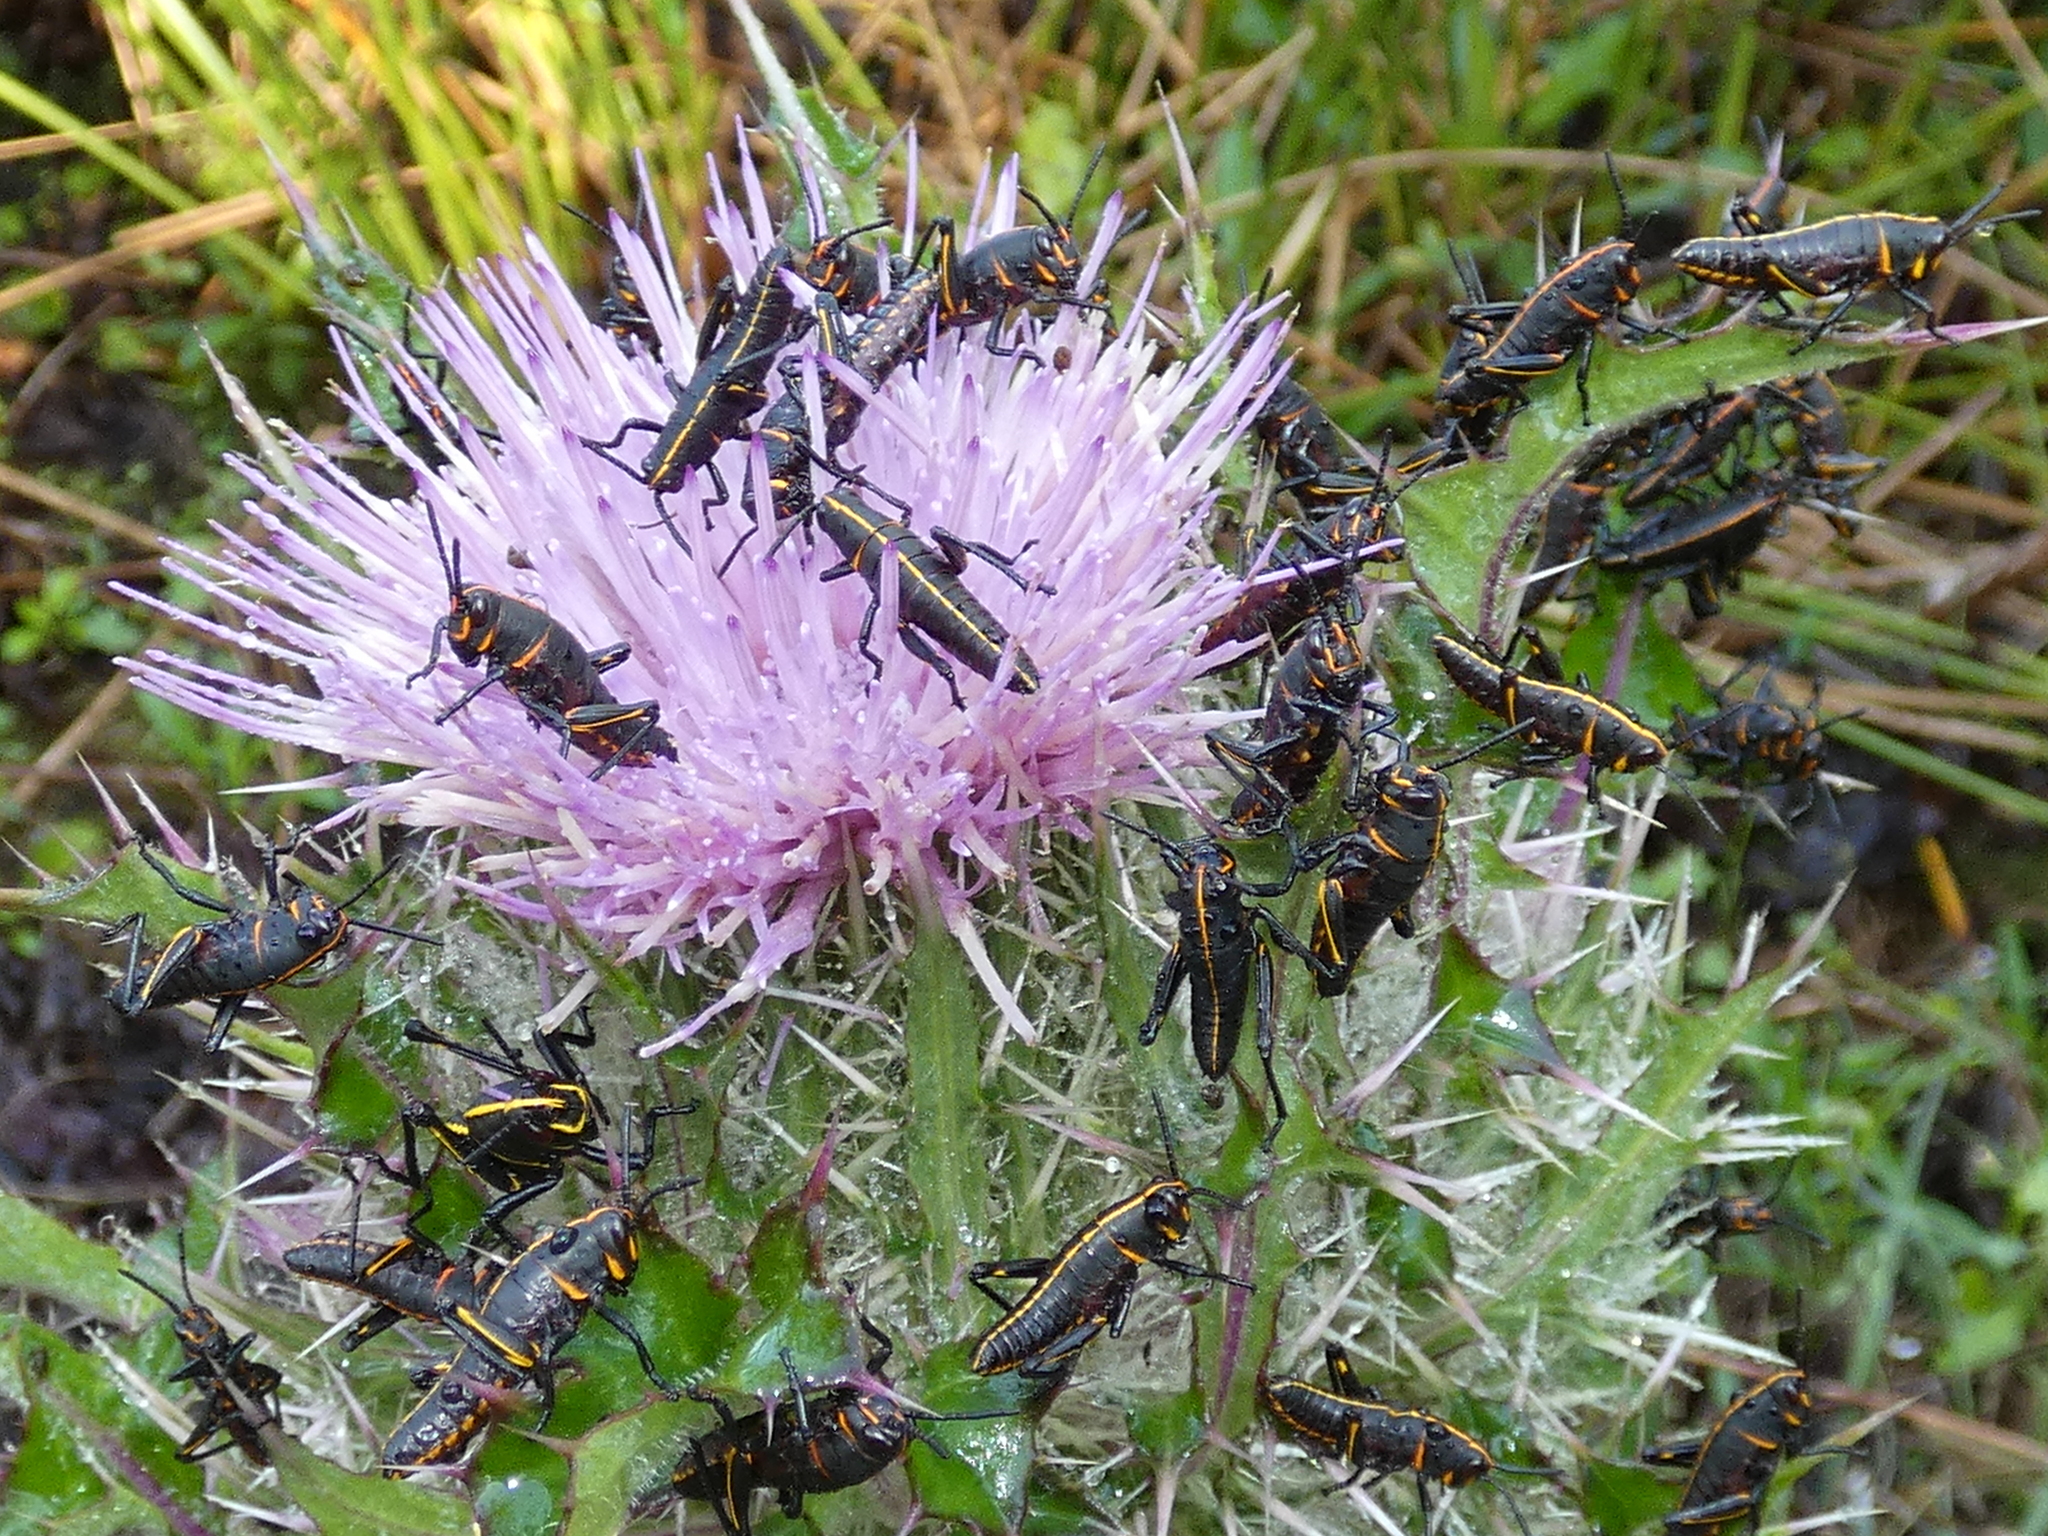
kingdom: Animalia
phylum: Arthropoda
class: Insecta
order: Orthoptera
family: Romaleidae
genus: Romalea
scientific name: Romalea microptera
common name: Eastern lubber grasshopper
